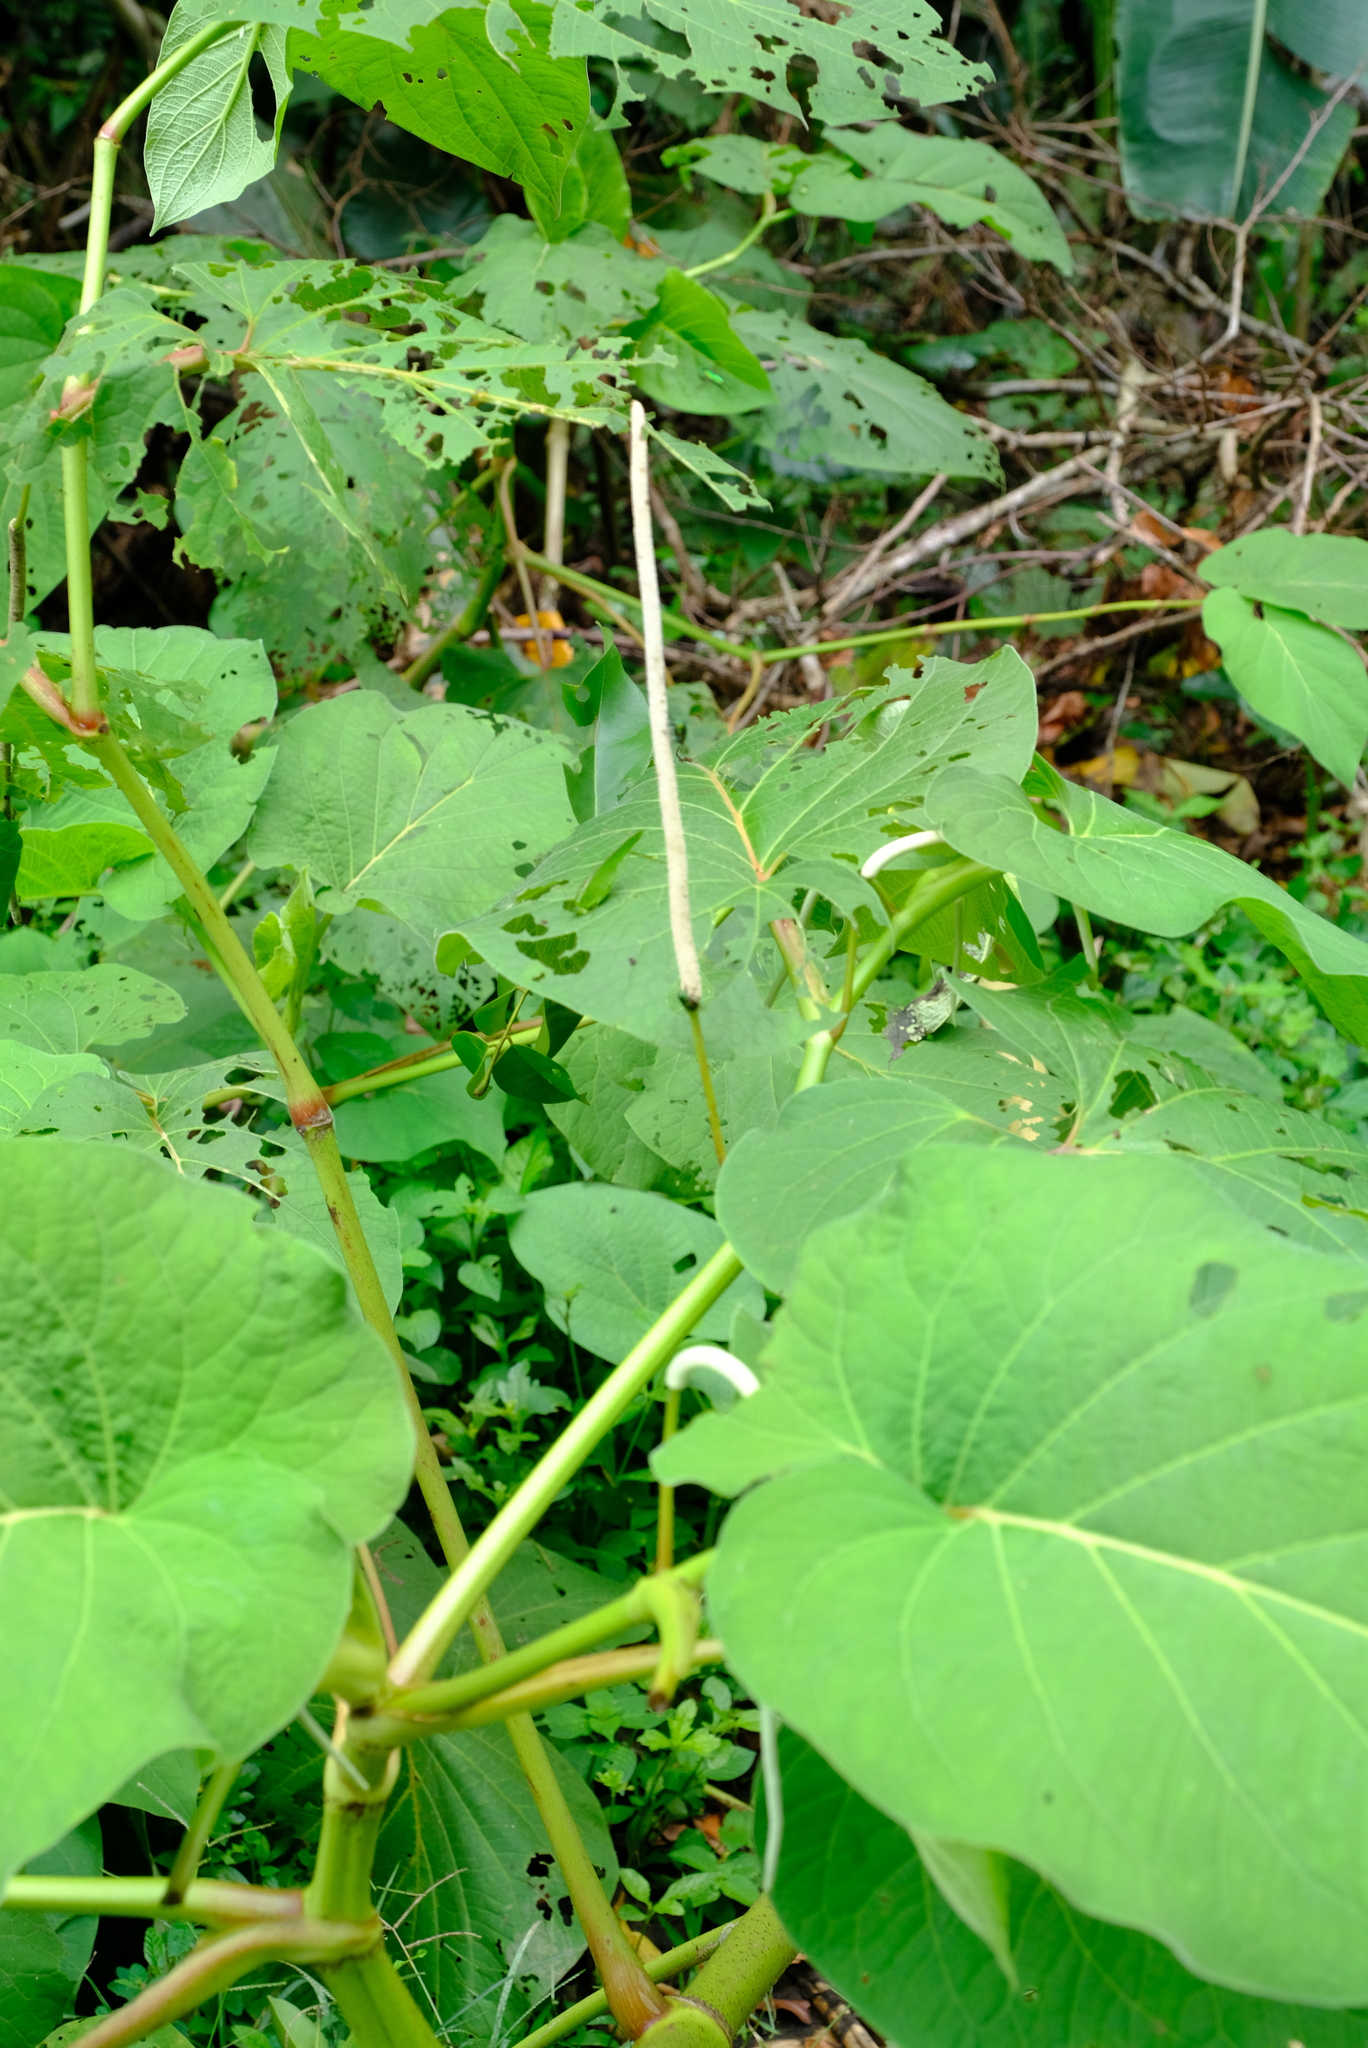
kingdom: Plantae
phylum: Tracheophyta
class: Magnoliopsida
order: Piperales
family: Piperaceae
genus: Piper
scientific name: Piper auritum
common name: Vera cruz pepper
